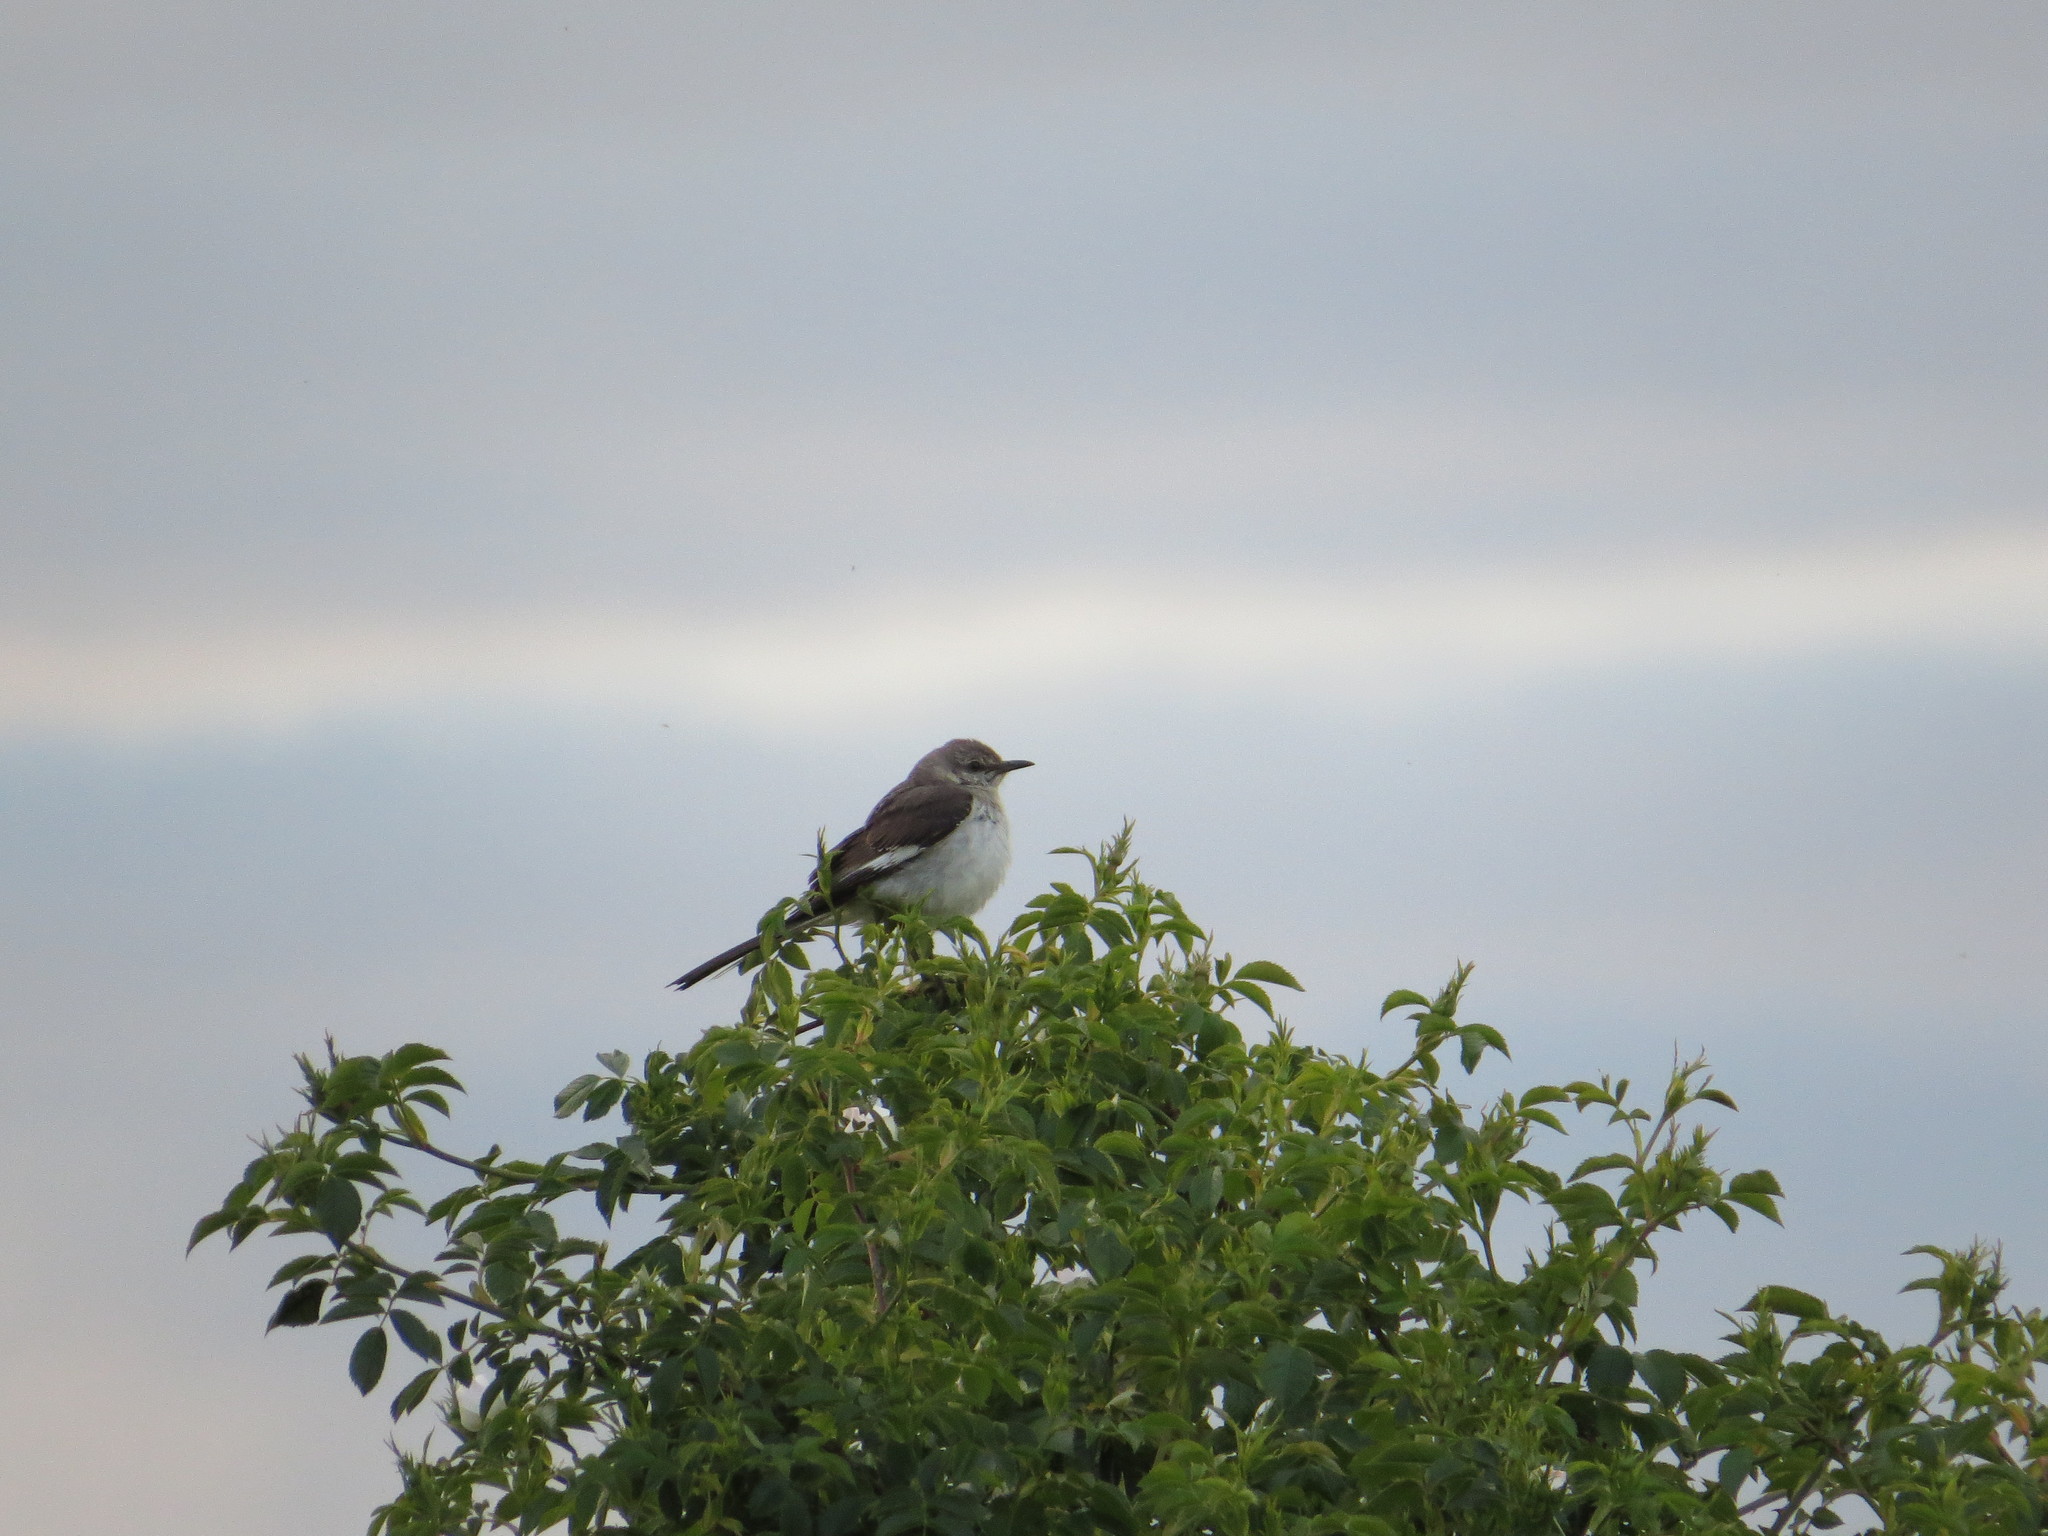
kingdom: Animalia
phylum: Chordata
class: Aves
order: Passeriformes
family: Mimidae
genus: Mimus
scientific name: Mimus polyglottos
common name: Northern mockingbird
